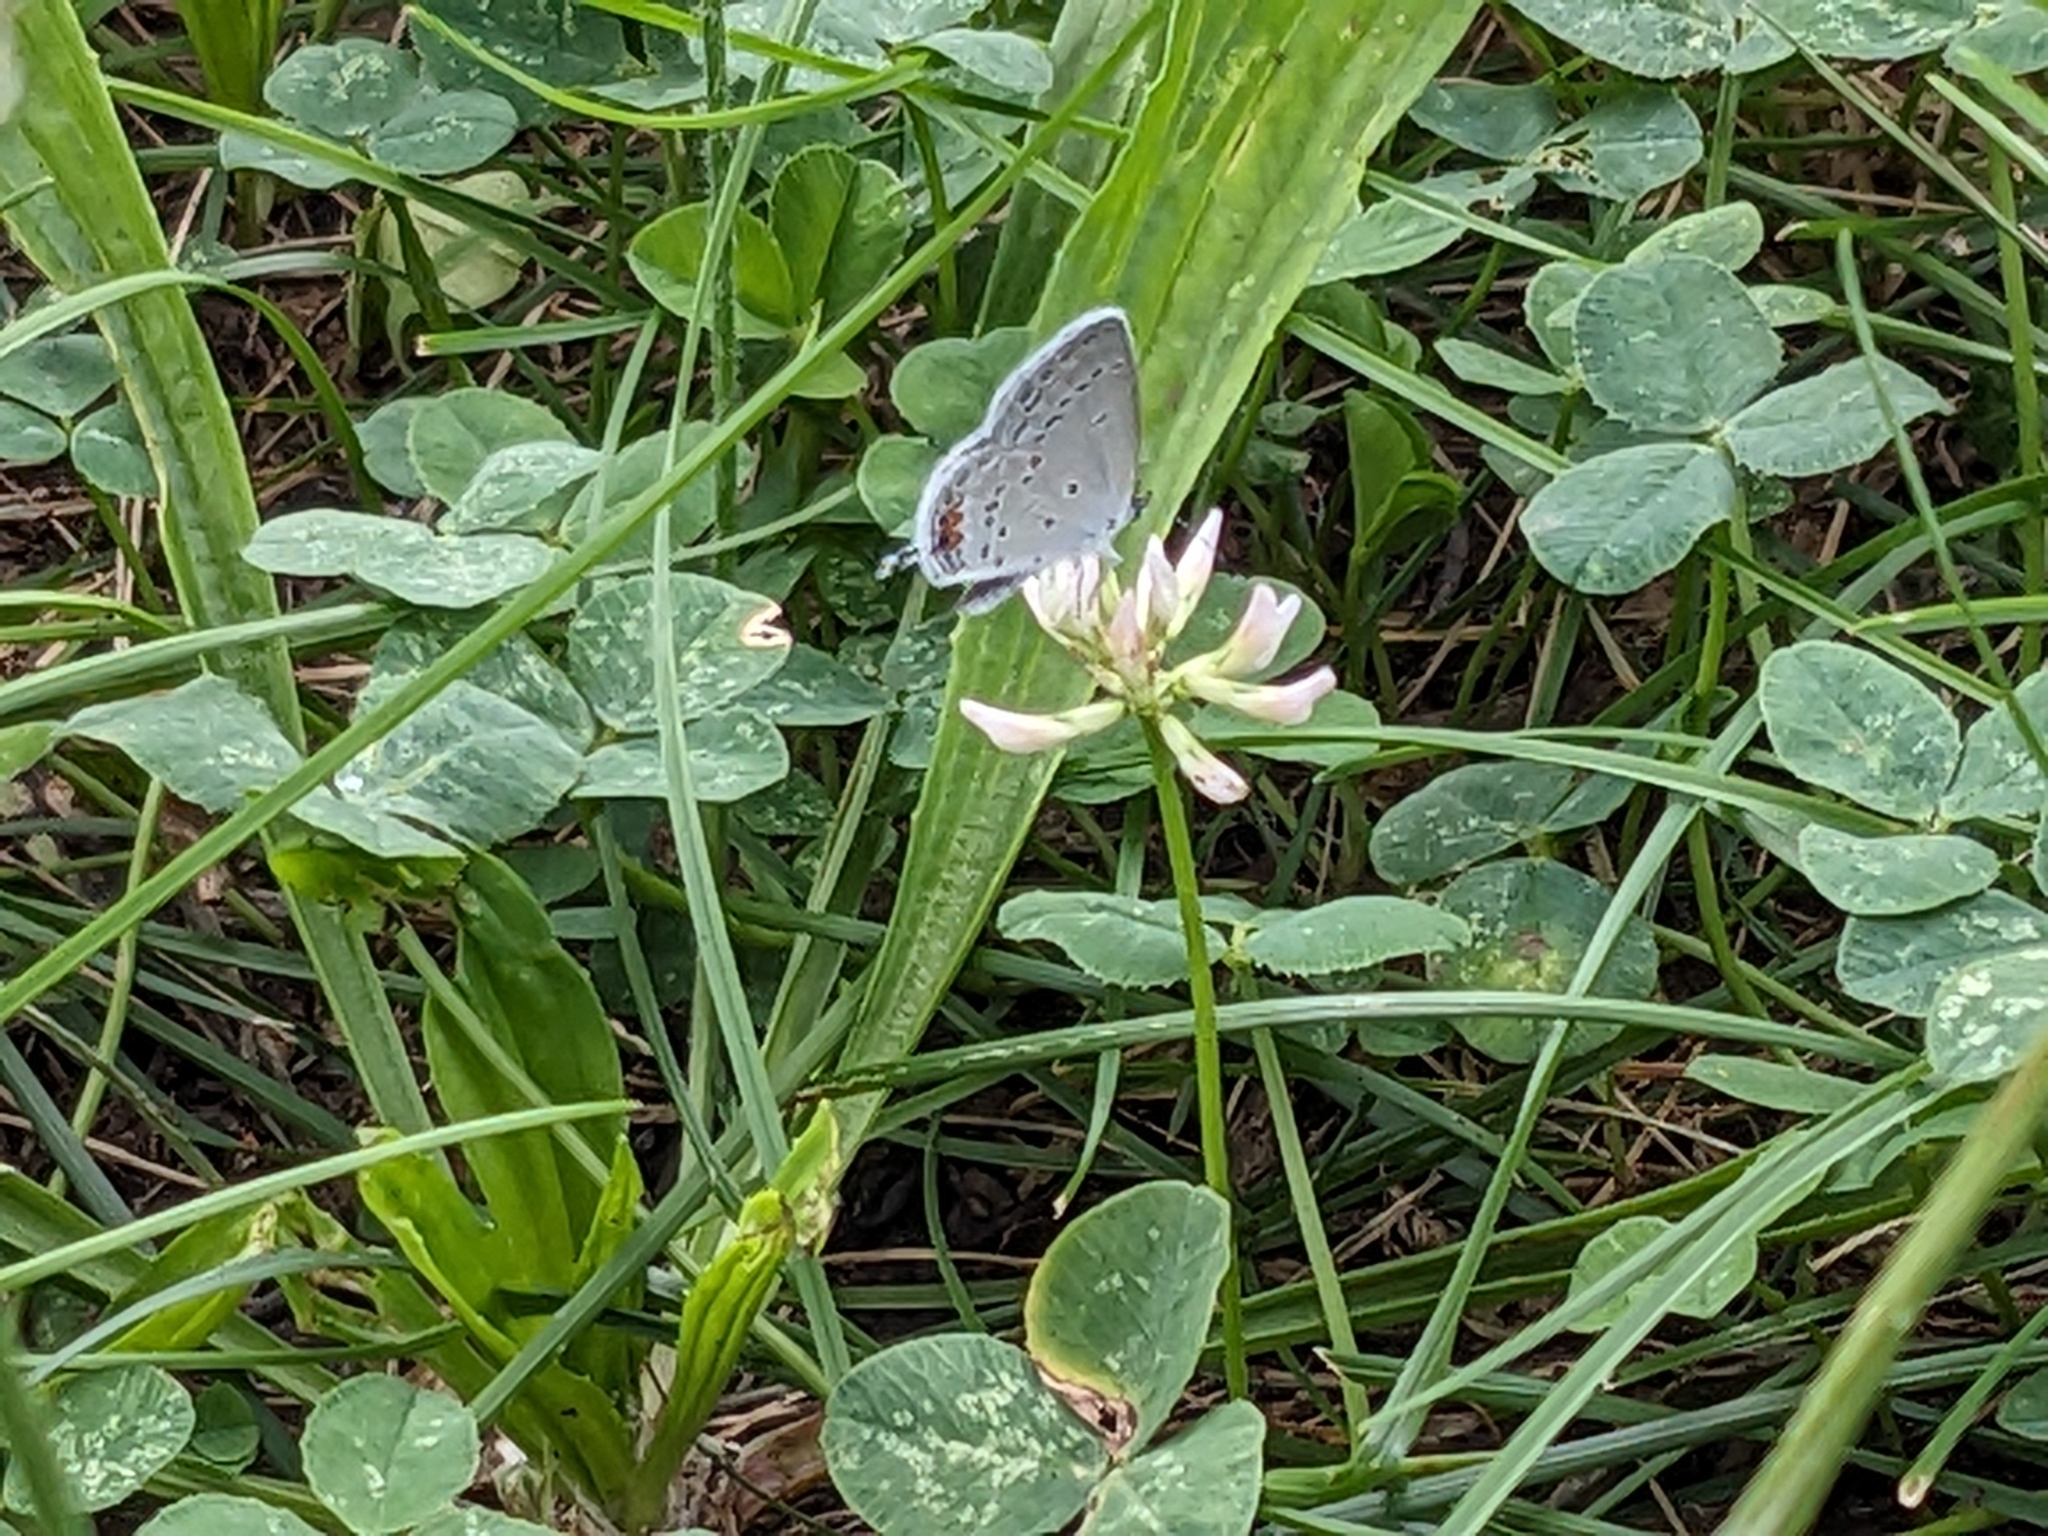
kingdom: Animalia
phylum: Arthropoda
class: Insecta
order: Lepidoptera
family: Lycaenidae
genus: Elkalyce
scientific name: Elkalyce comyntas
